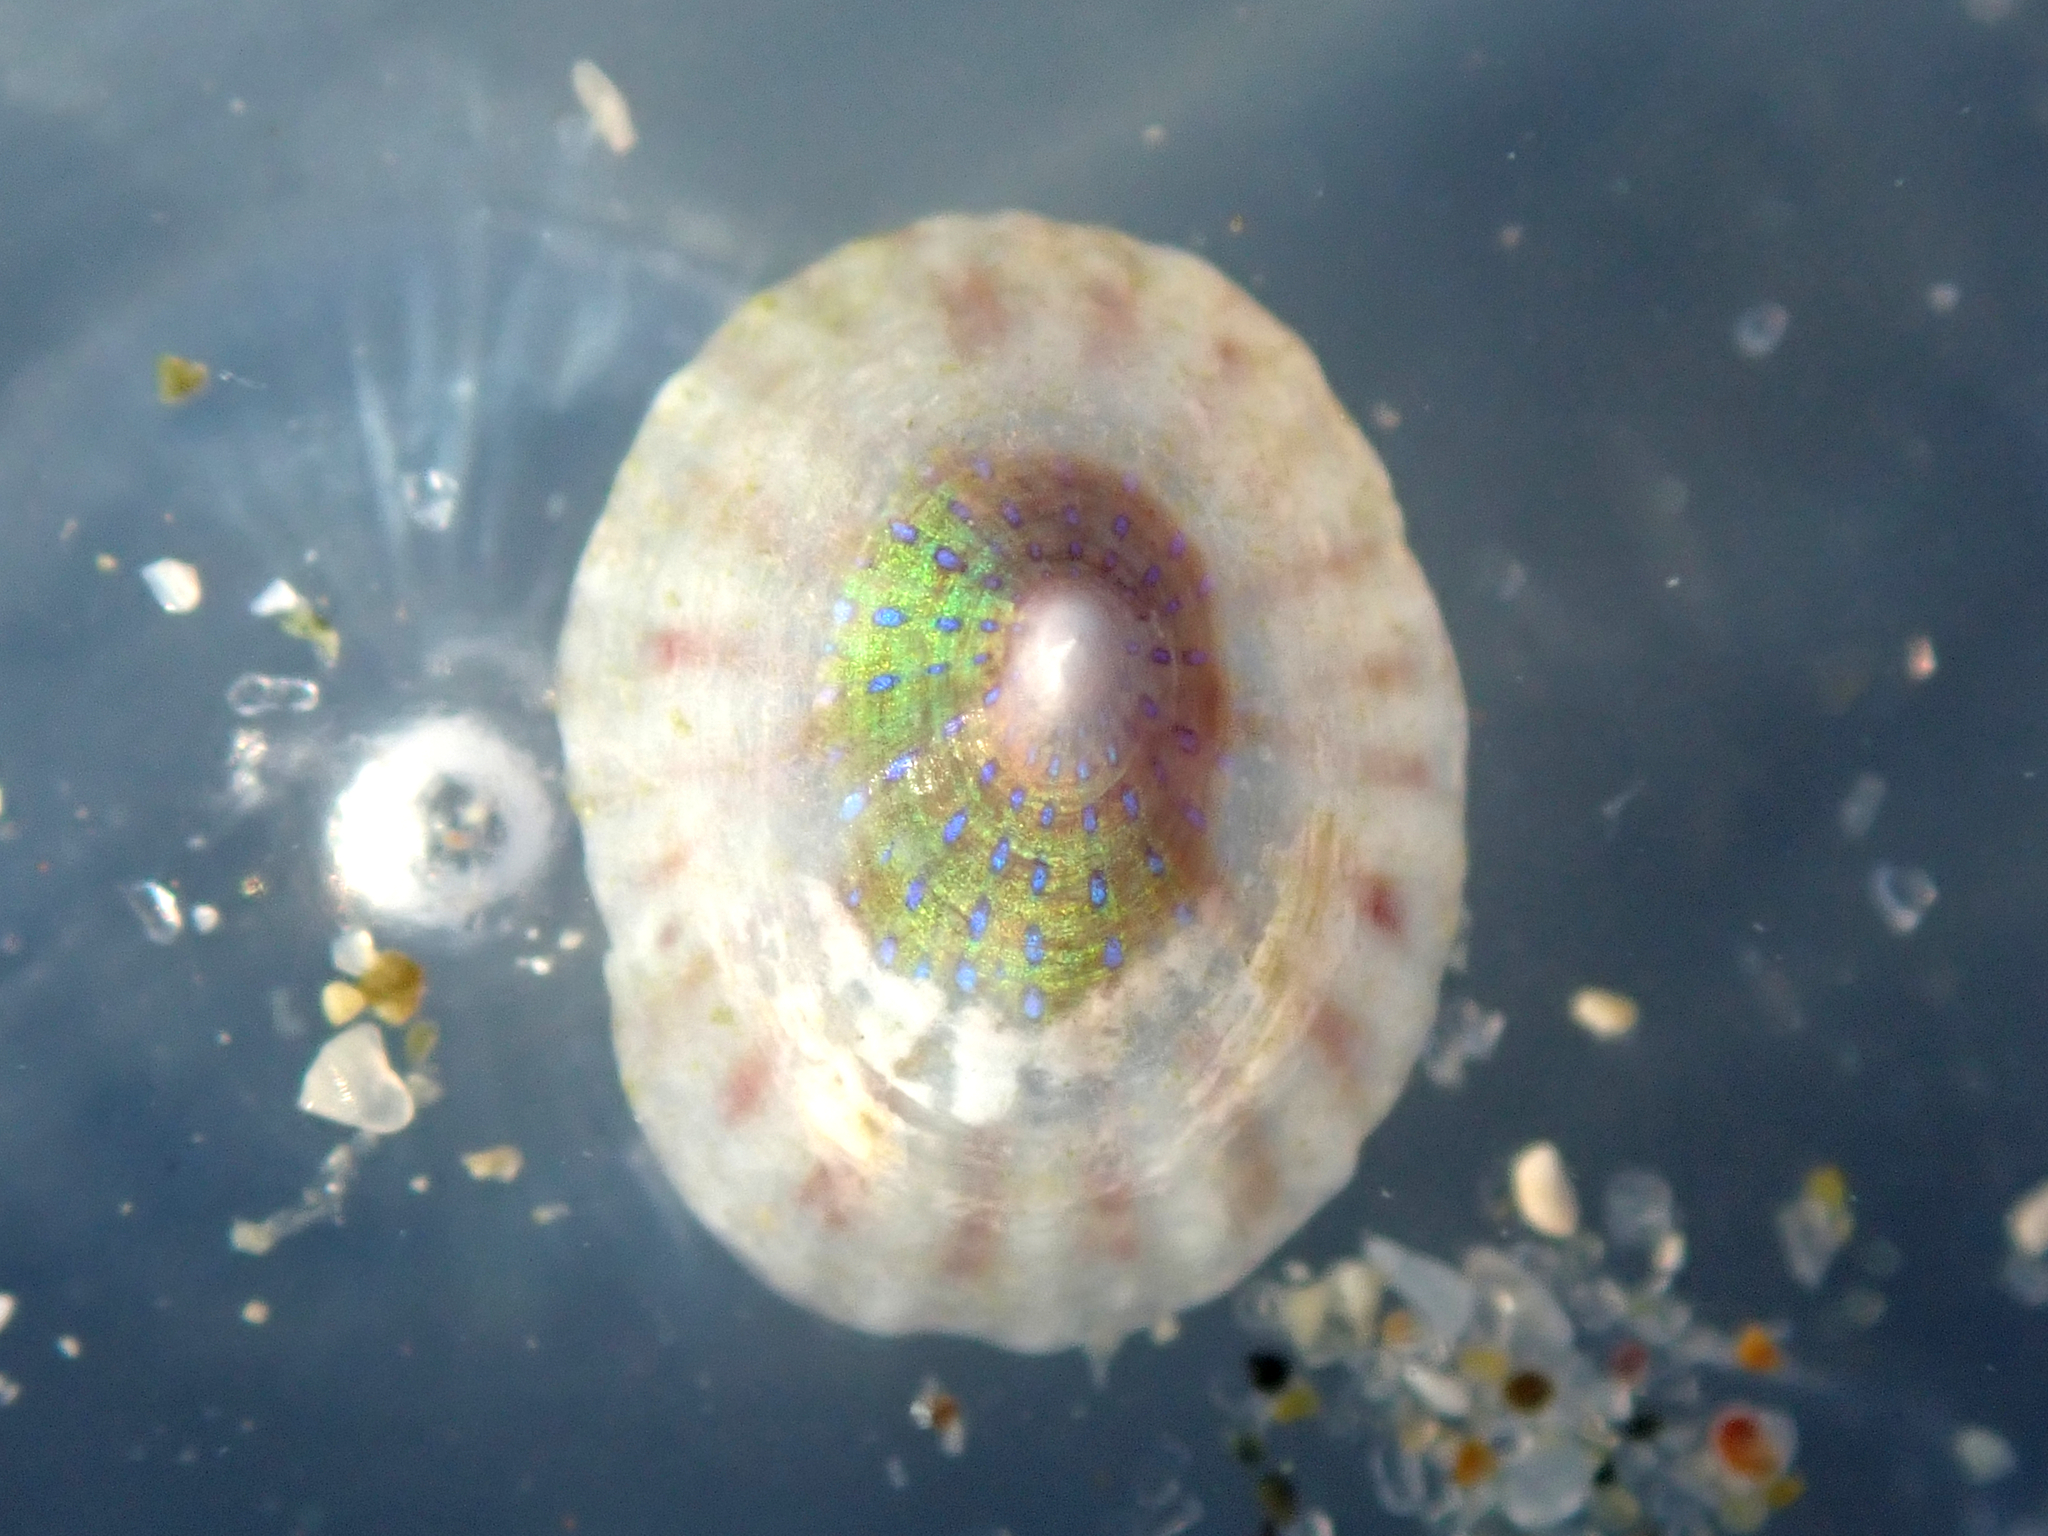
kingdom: Animalia
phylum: Mollusca
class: Gastropoda
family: Lottiidae
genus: Asteracmea
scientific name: Asteracmea suteri
